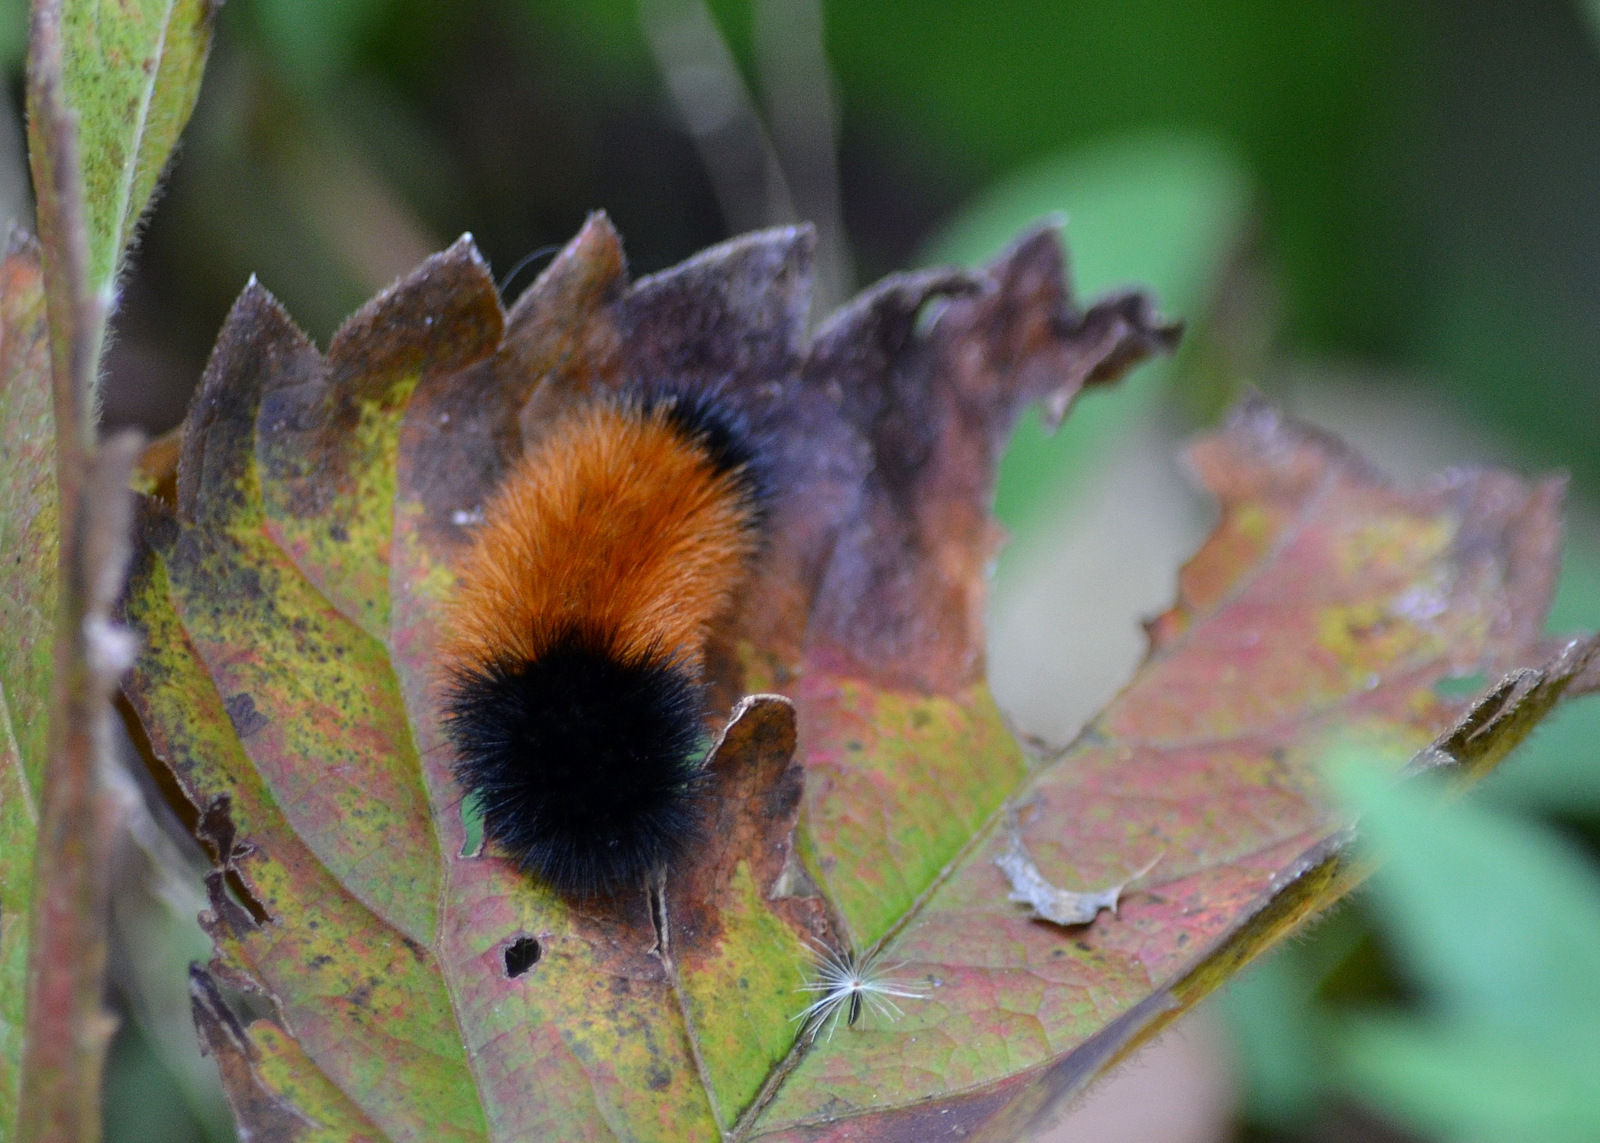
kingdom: Animalia
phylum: Arthropoda
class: Insecta
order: Lepidoptera
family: Erebidae
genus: Pyrrharctia
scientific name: Pyrrharctia isabella
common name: Isabella tiger moth
